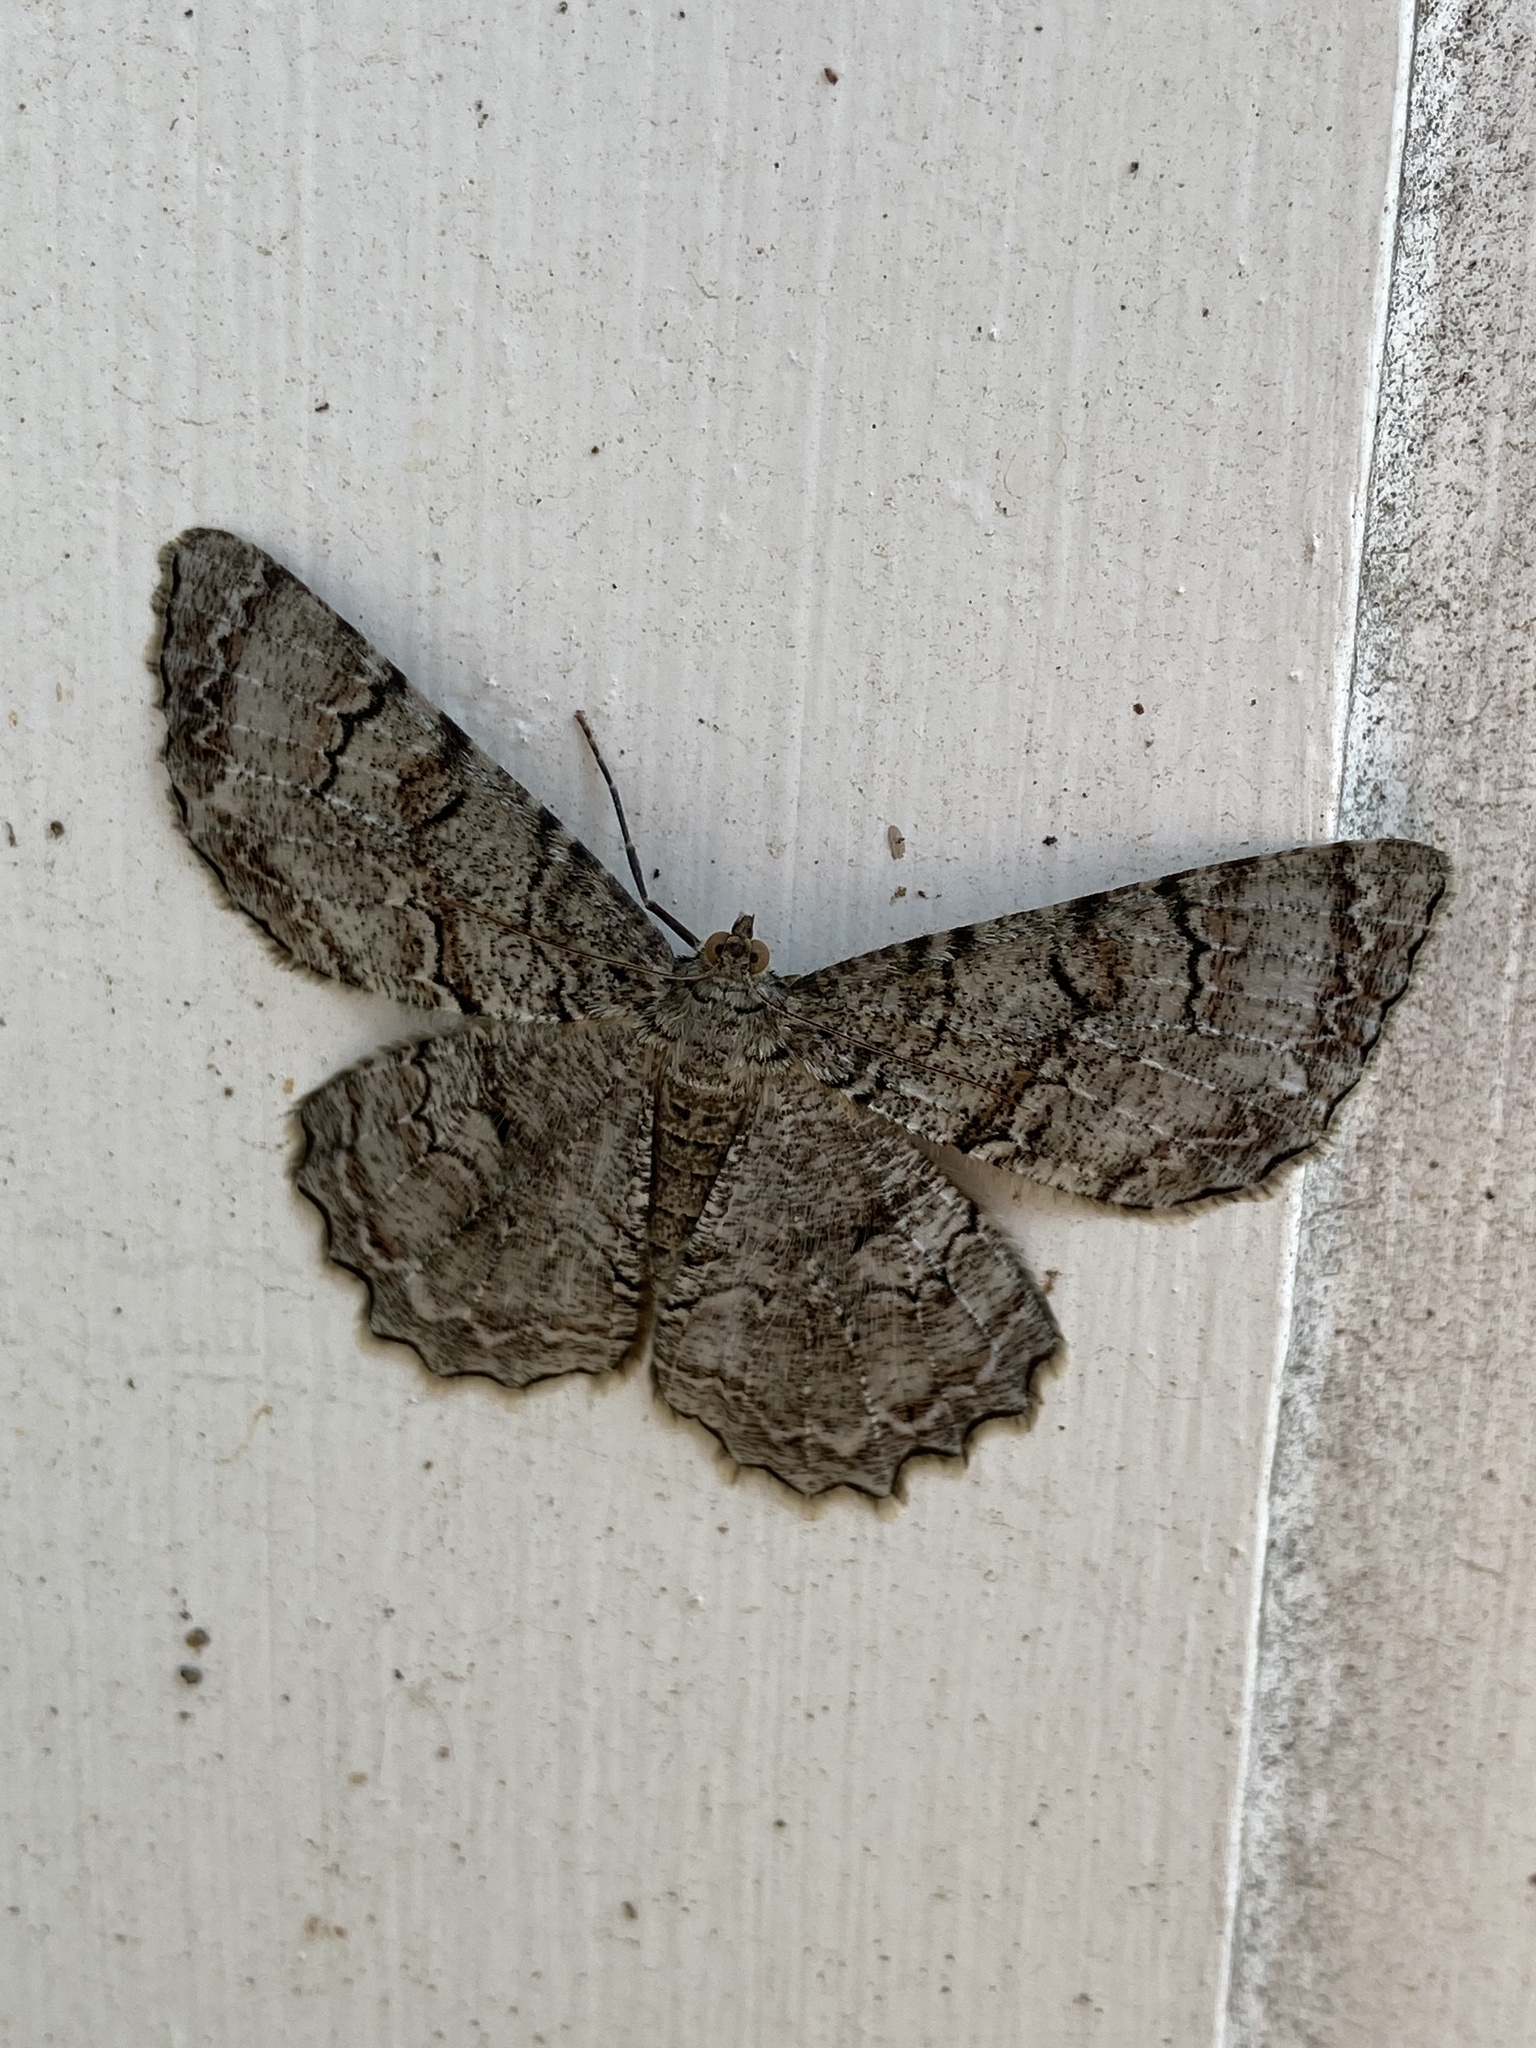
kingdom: Animalia
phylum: Arthropoda
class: Insecta
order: Lepidoptera
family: Geometridae
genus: Epimecis
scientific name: Epimecis hortaria
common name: Tulip-tree beauty
